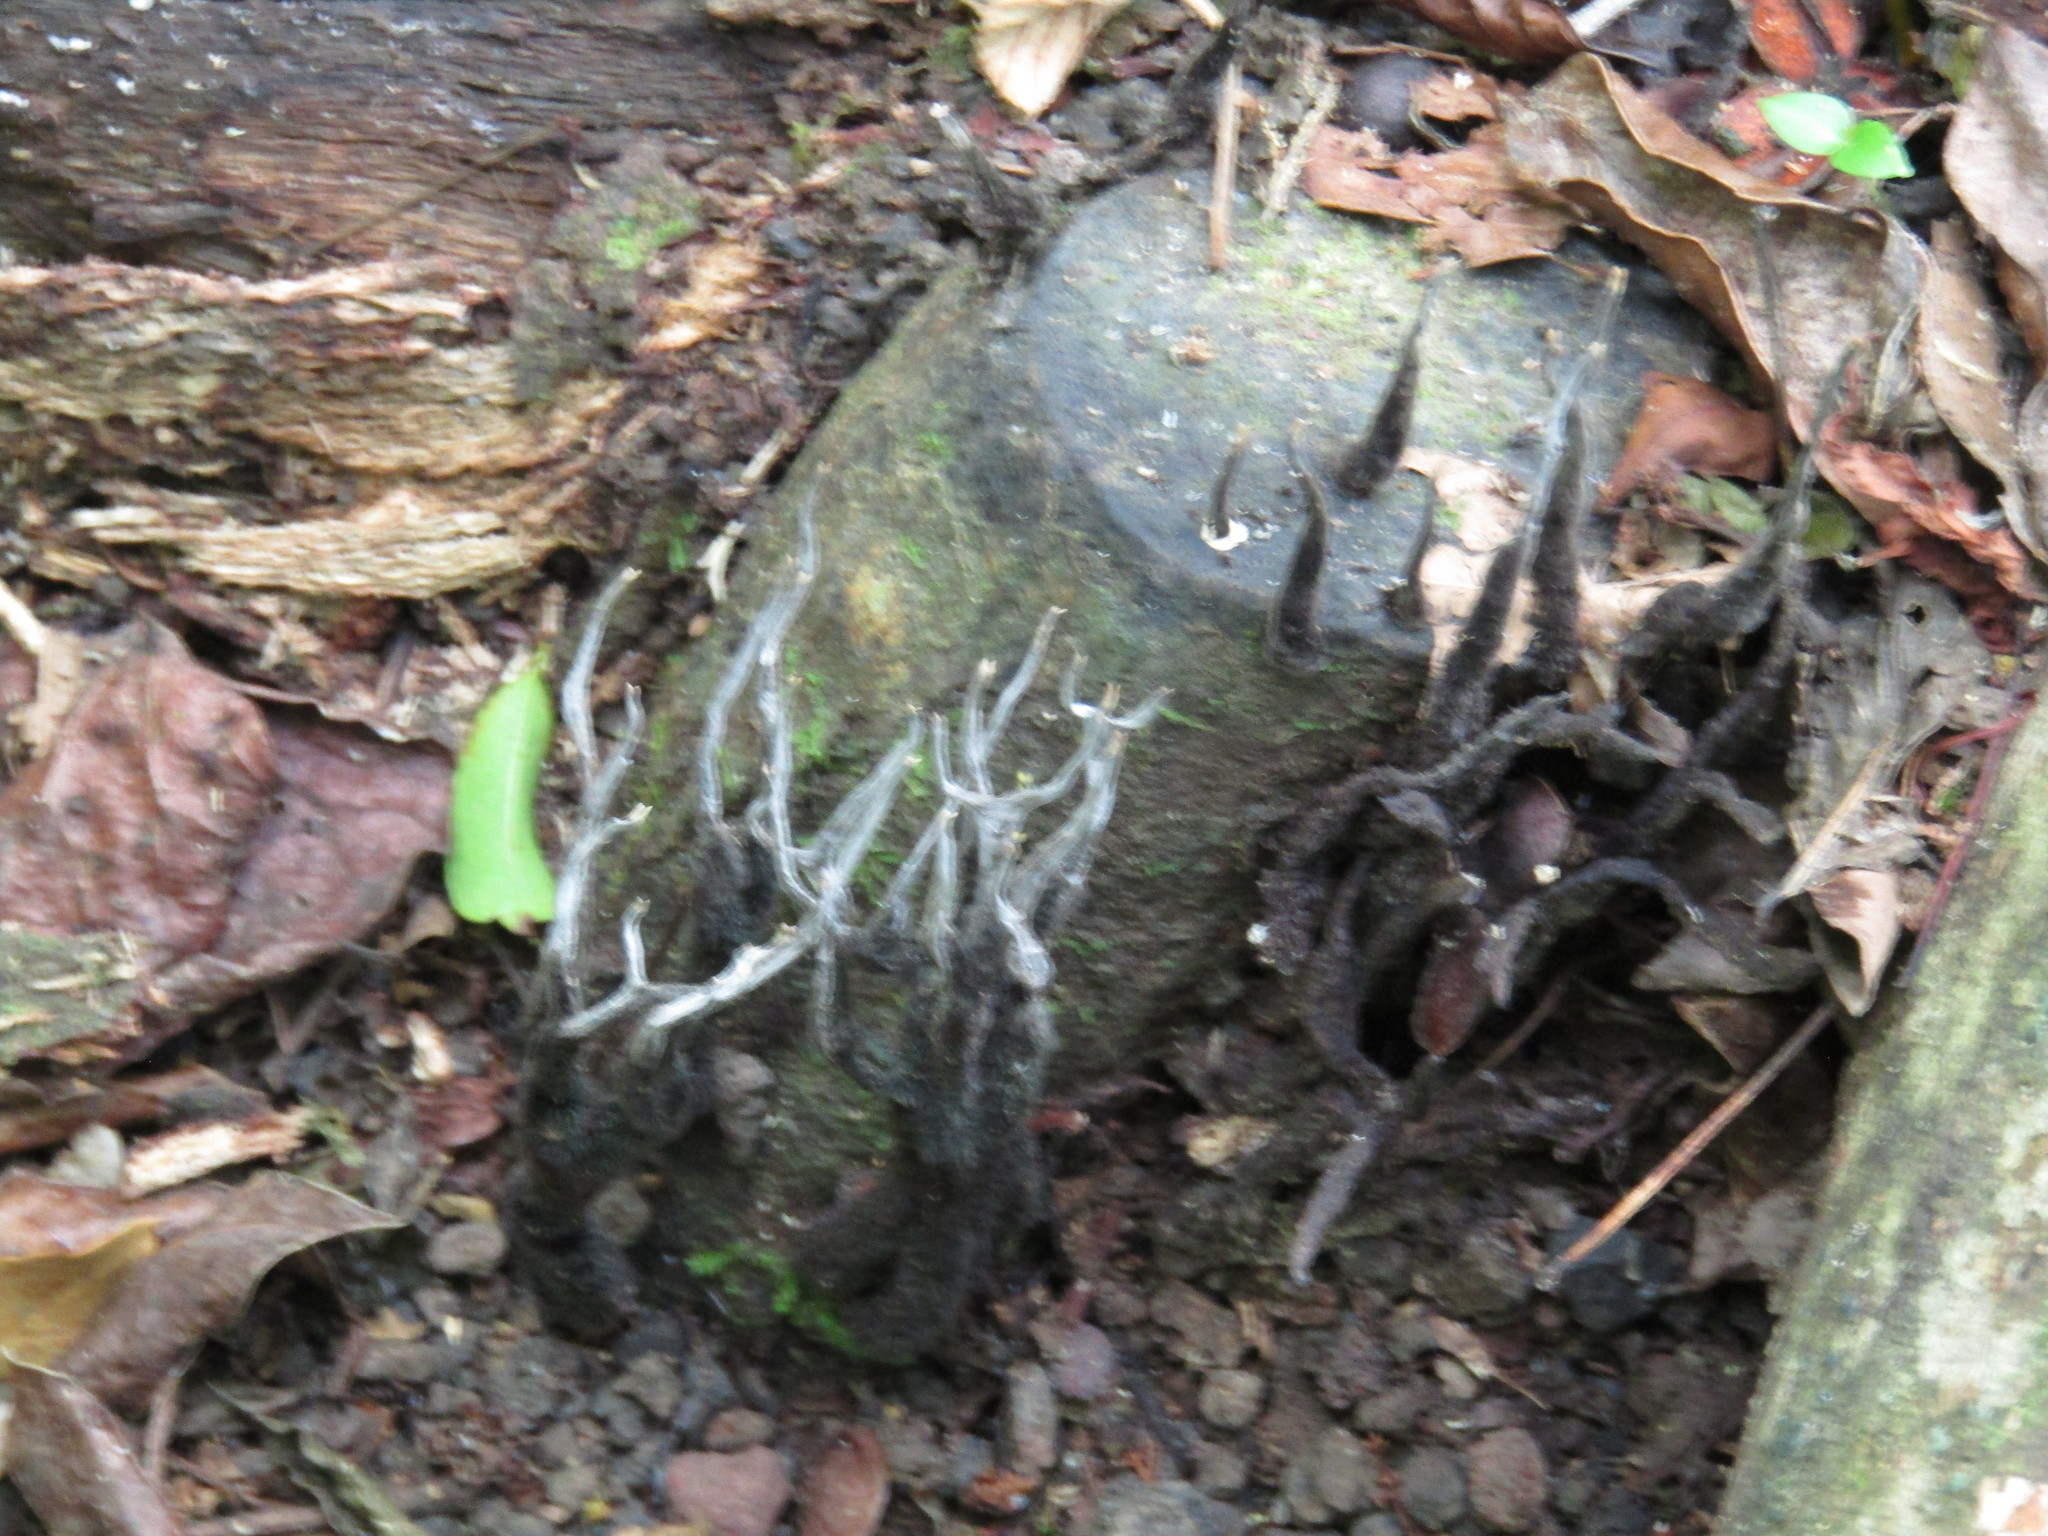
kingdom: Fungi
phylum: Ascomycota
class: Sordariomycetes
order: Xylariales
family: Xylariaceae
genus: Xylaria
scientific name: Xylaria hypoxylon
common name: Candle-snuff fungus
